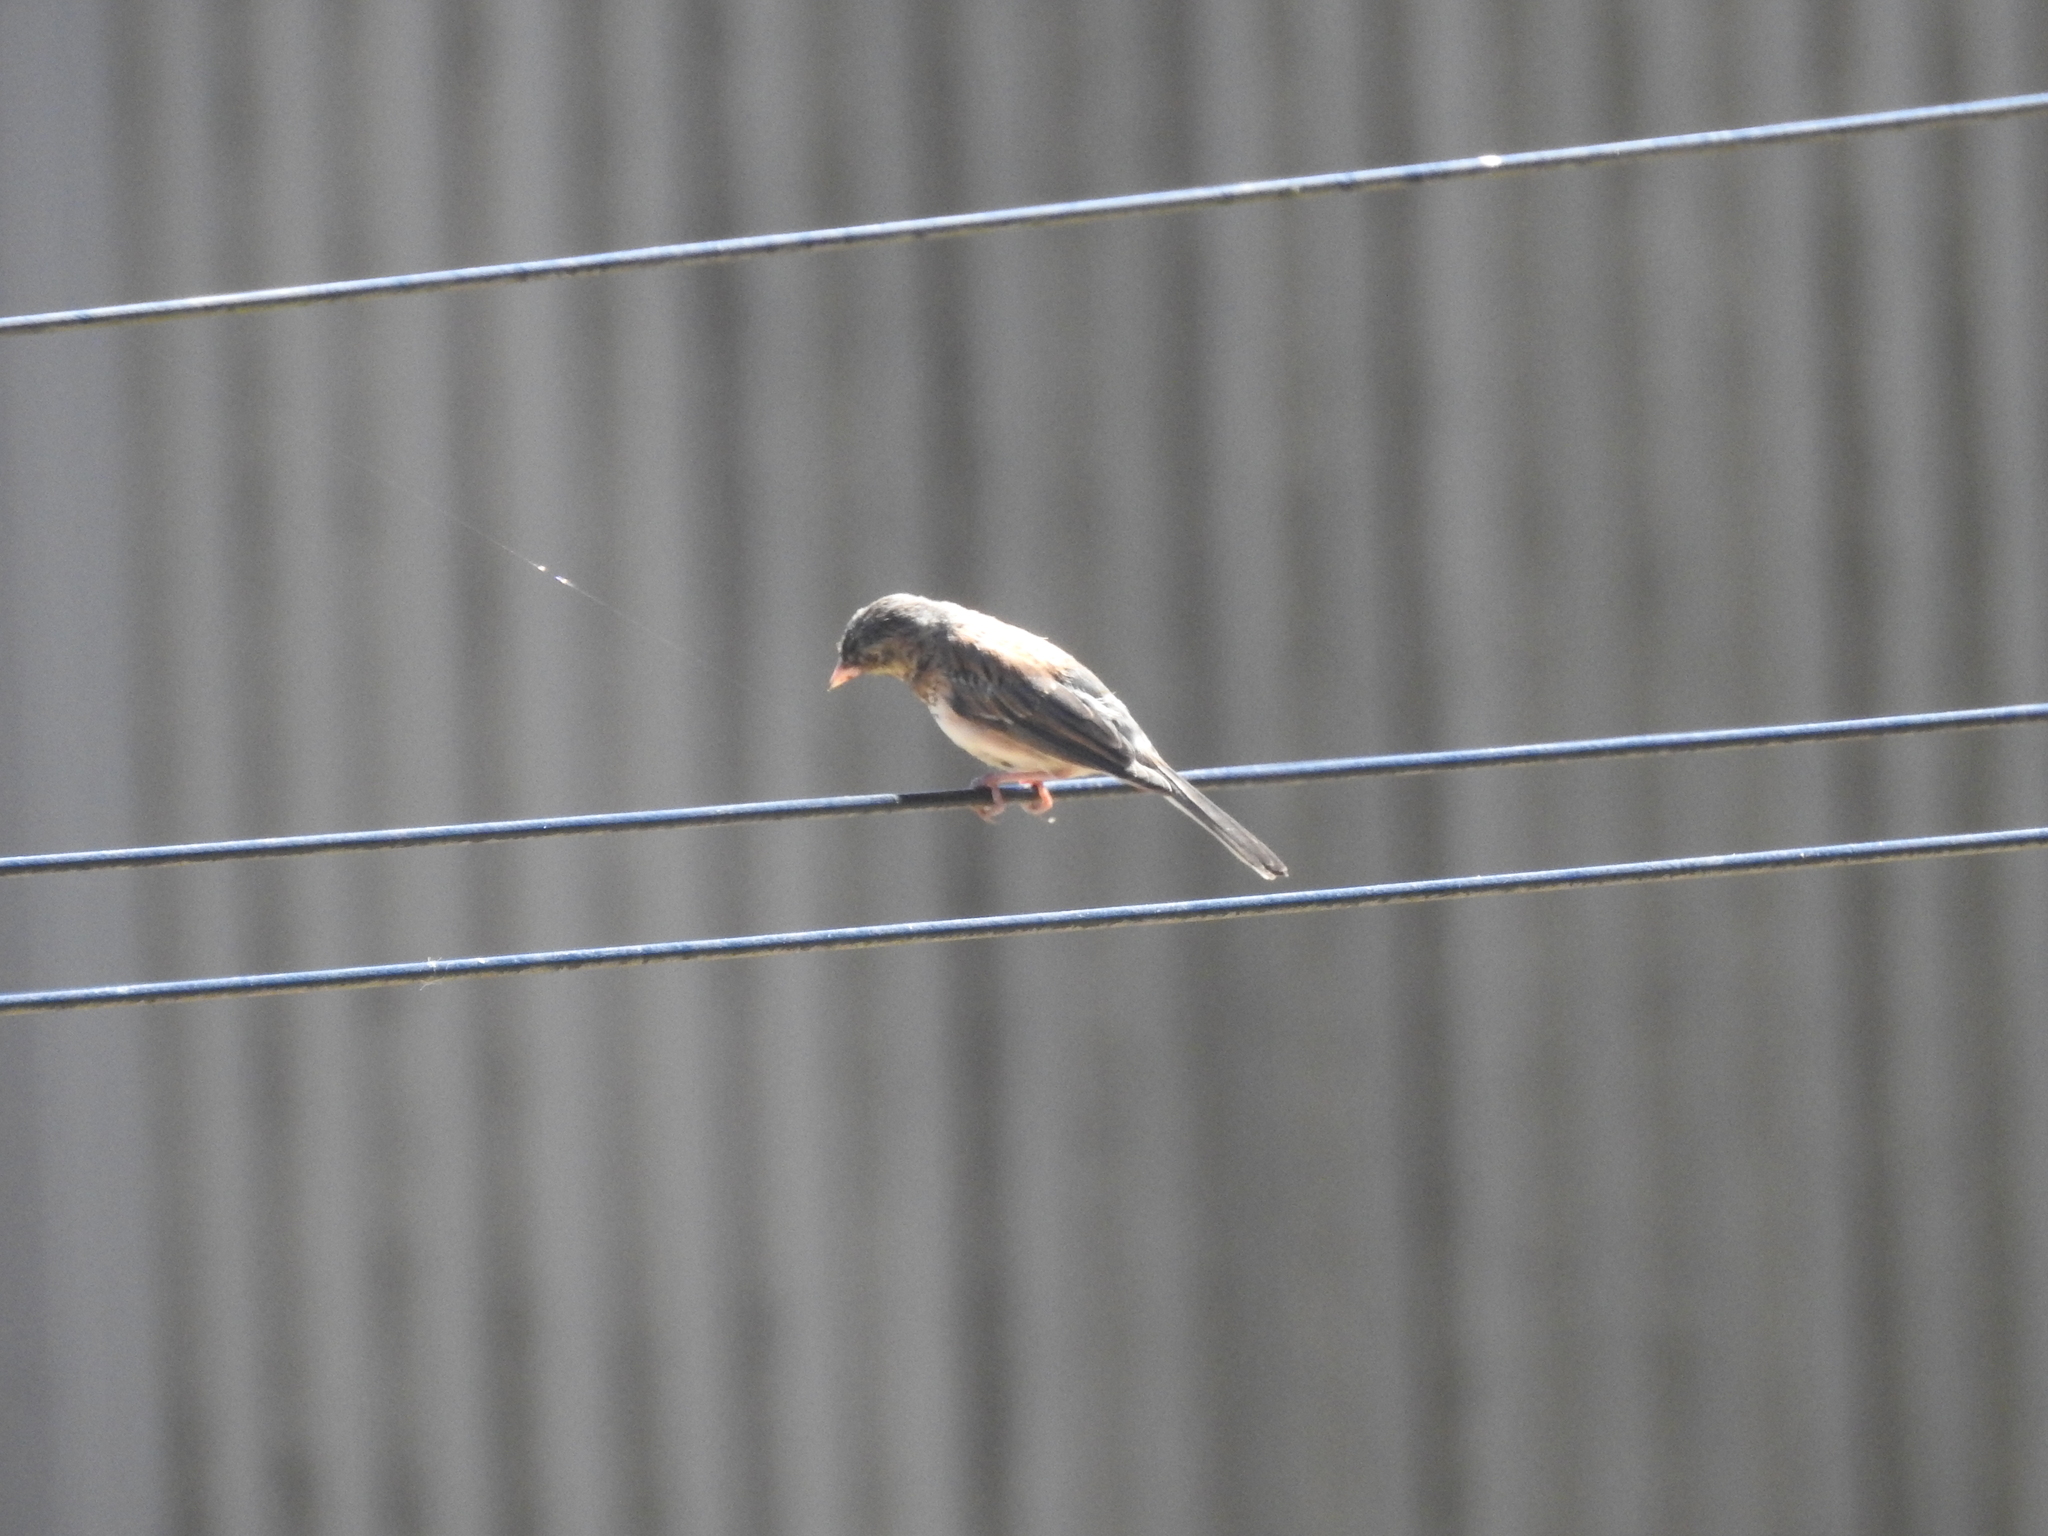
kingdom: Animalia
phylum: Chordata
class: Aves
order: Passeriformes
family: Passerellidae
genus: Junco
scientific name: Junco hyemalis
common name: Dark-eyed junco
